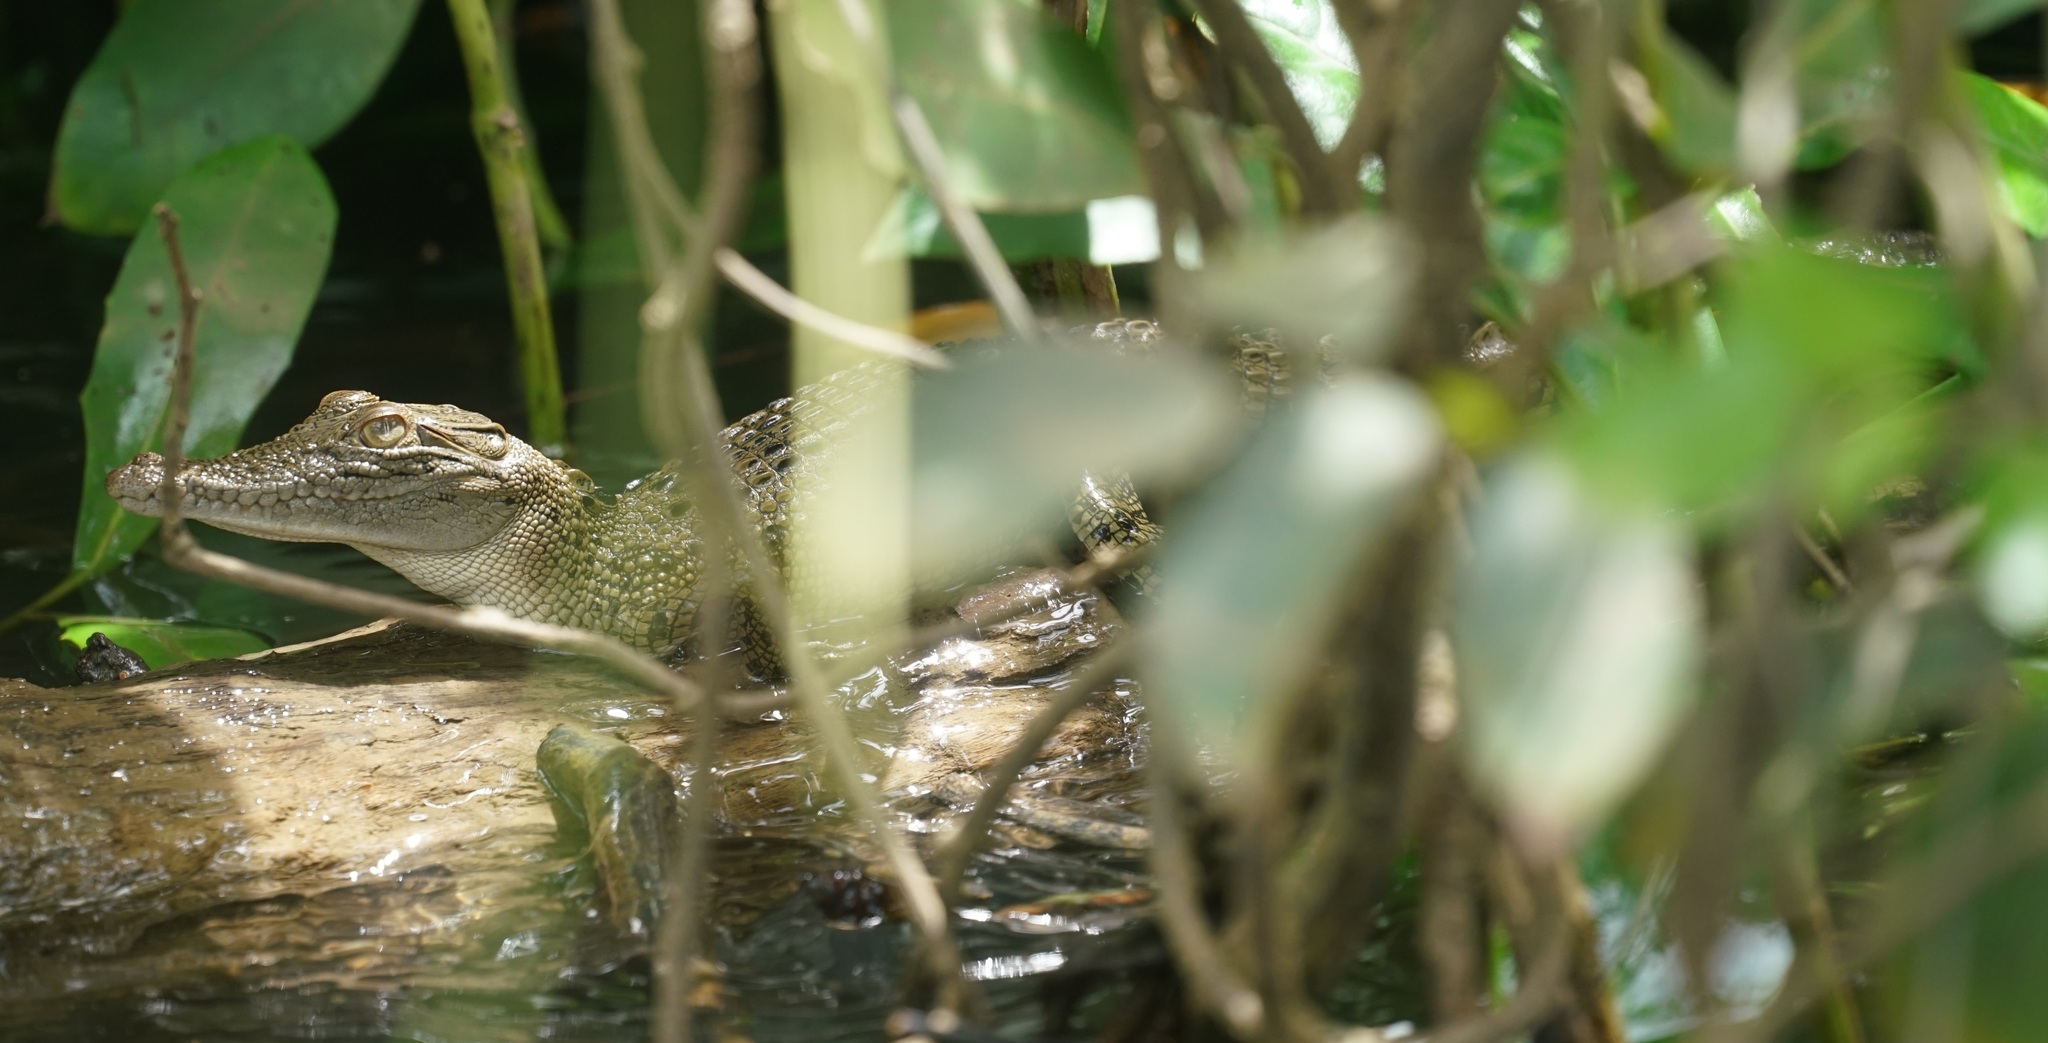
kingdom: Animalia
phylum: Chordata
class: Crocodylia
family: Crocodylidae
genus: Crocodylus
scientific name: Crocodylus porosus
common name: Saltwater crocodile
